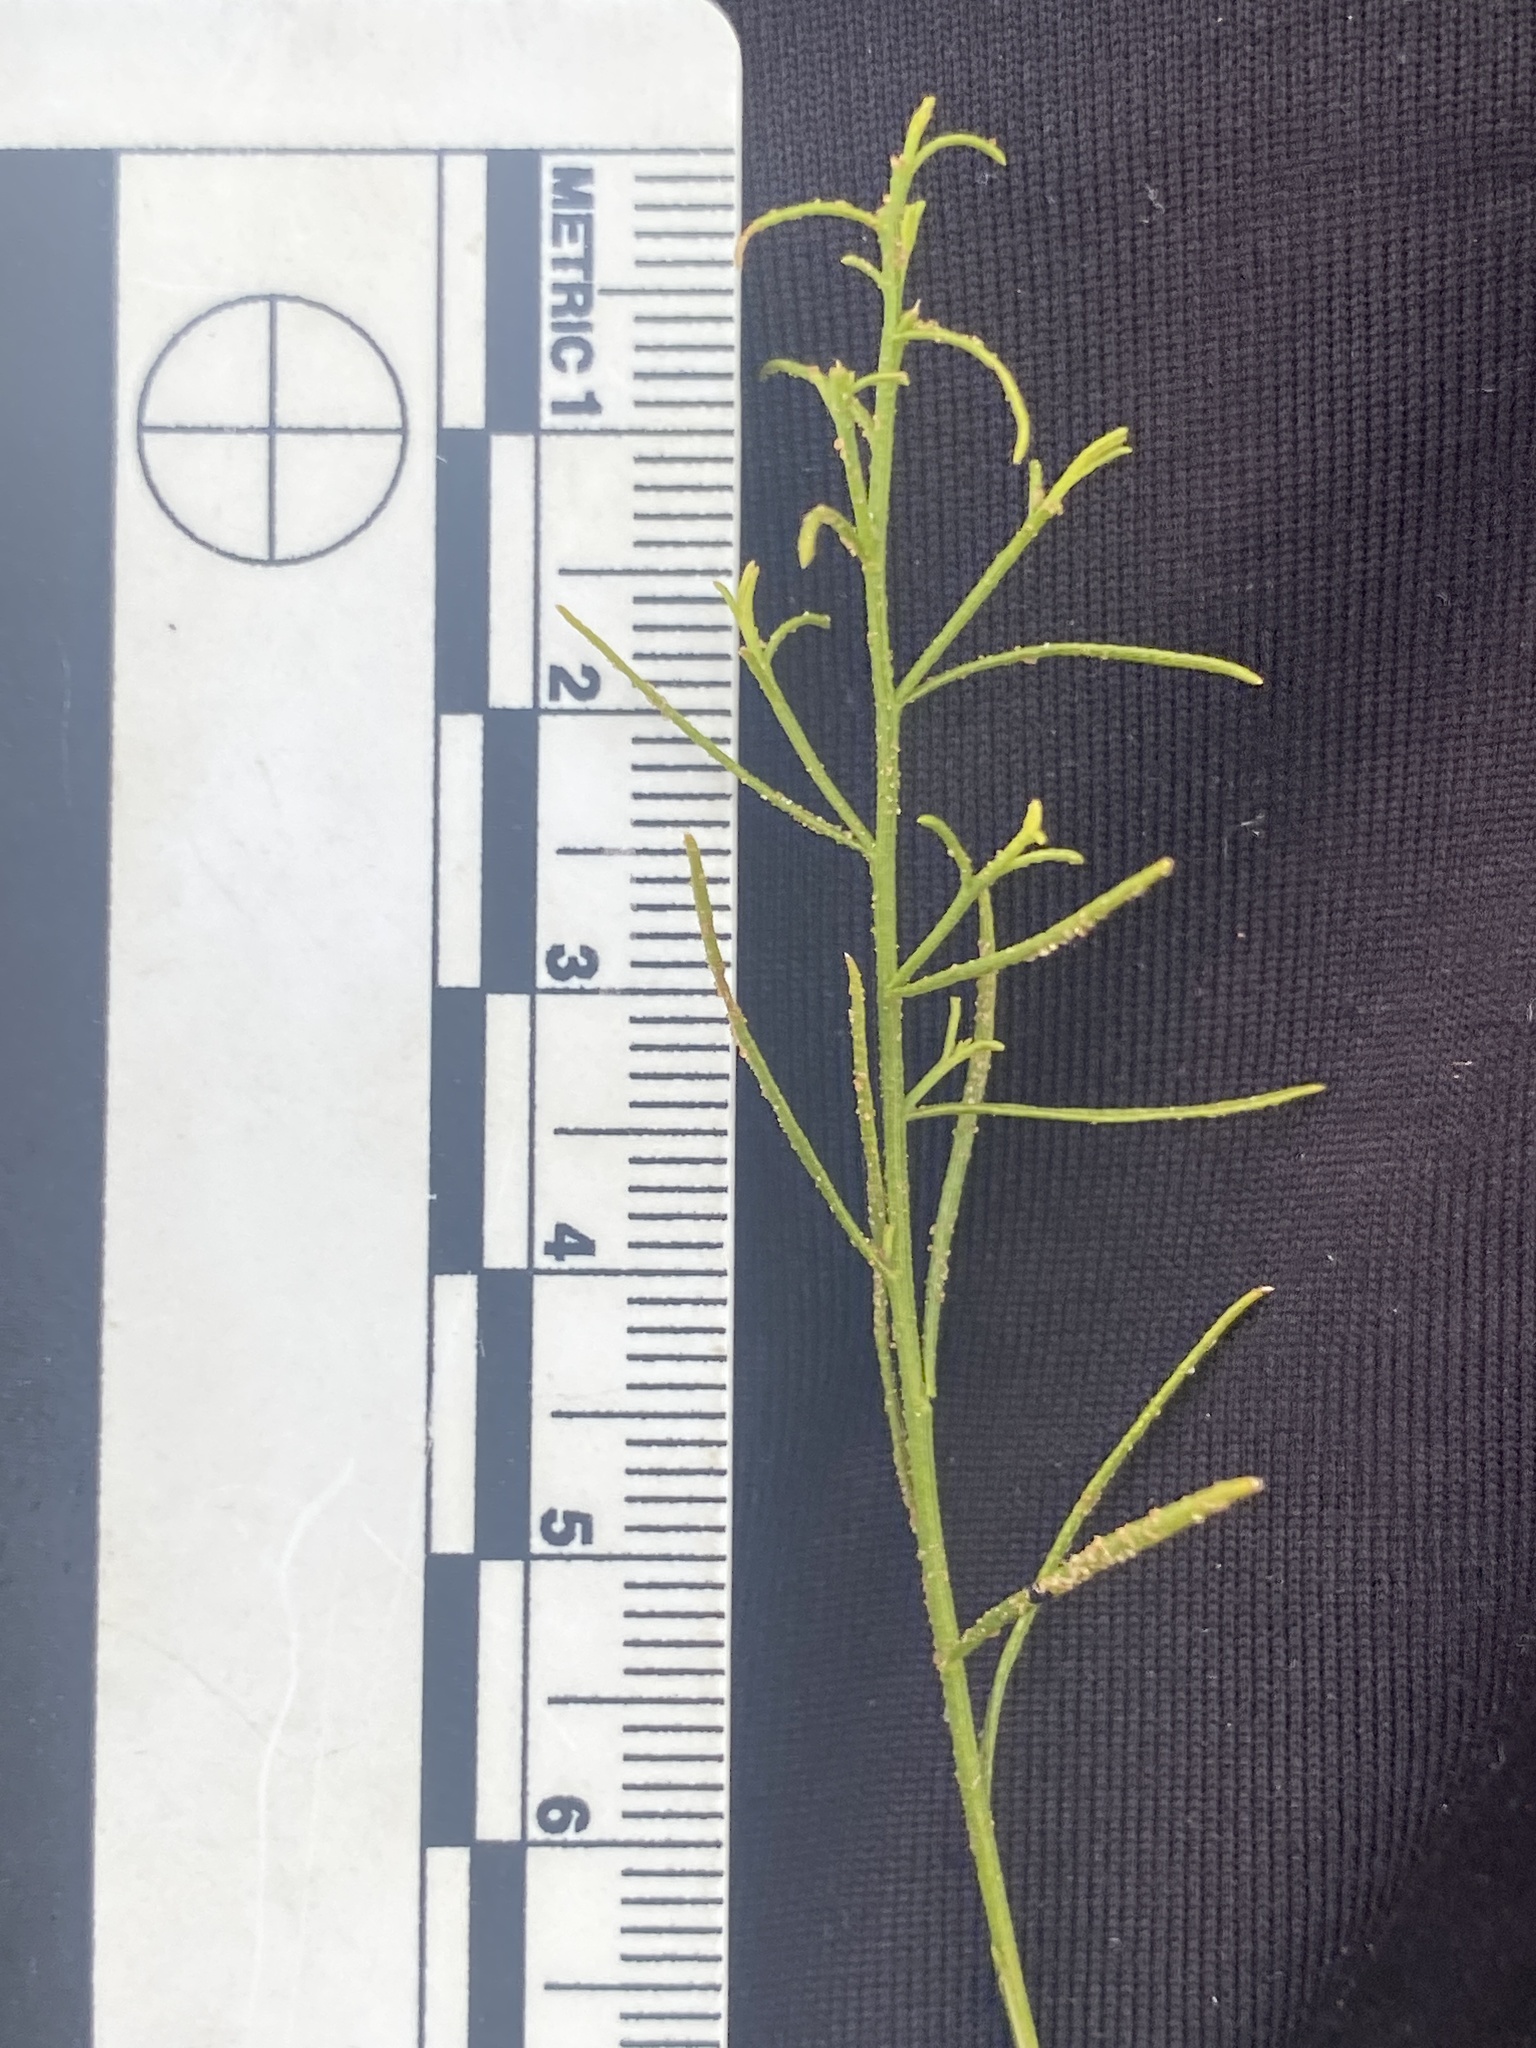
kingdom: Plantae
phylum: Tracheophyta
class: Magnoliopsida
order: Asterales
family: Asteraceae
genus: Gutierrezia
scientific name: Gutierrezia sarothrae
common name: Broom snakeweed
